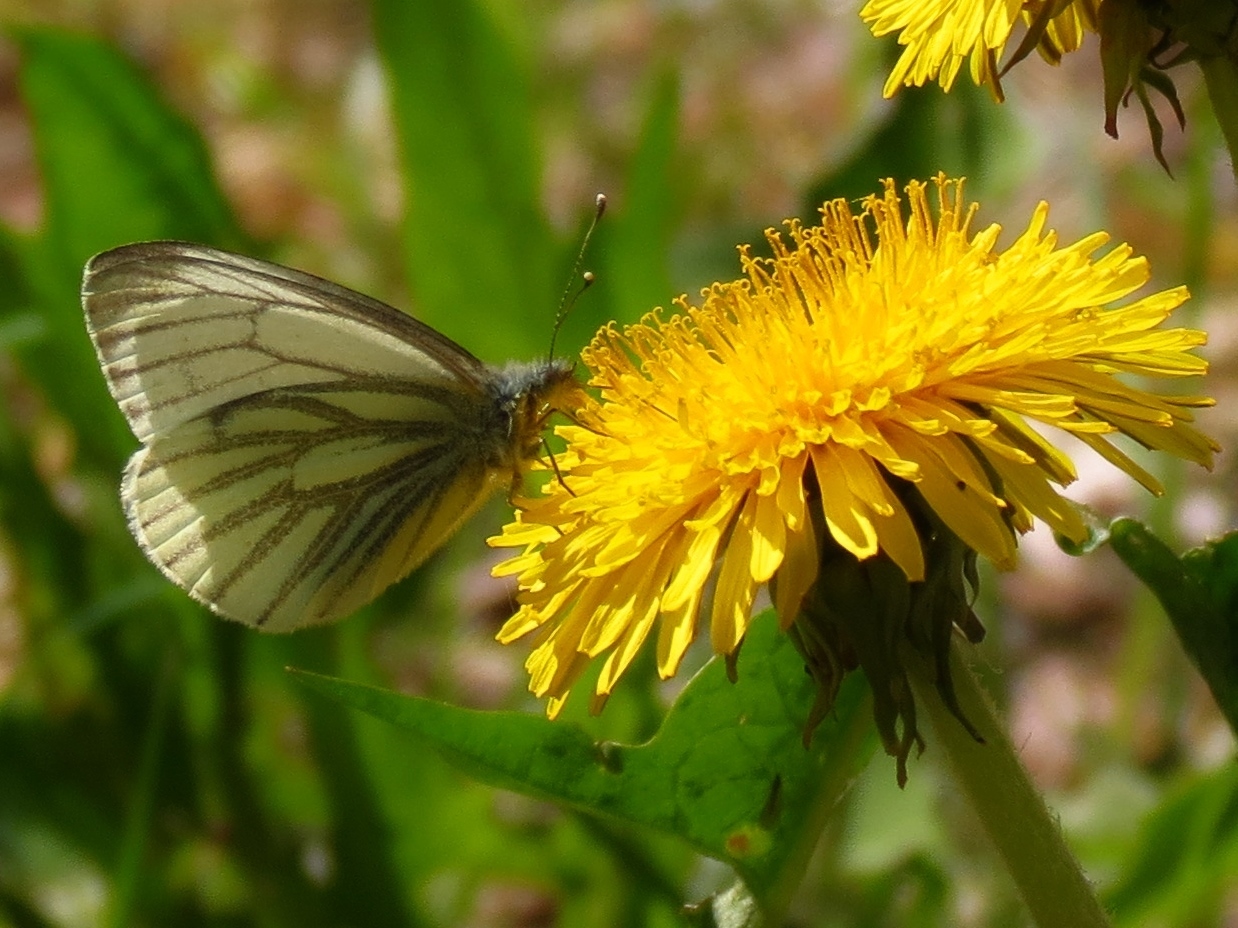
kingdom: Animalia
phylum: Arthropoda
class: Insecta
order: Lepidoptera
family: Pieridae
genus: Pieris
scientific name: Pieris napi
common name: Green-veined white
